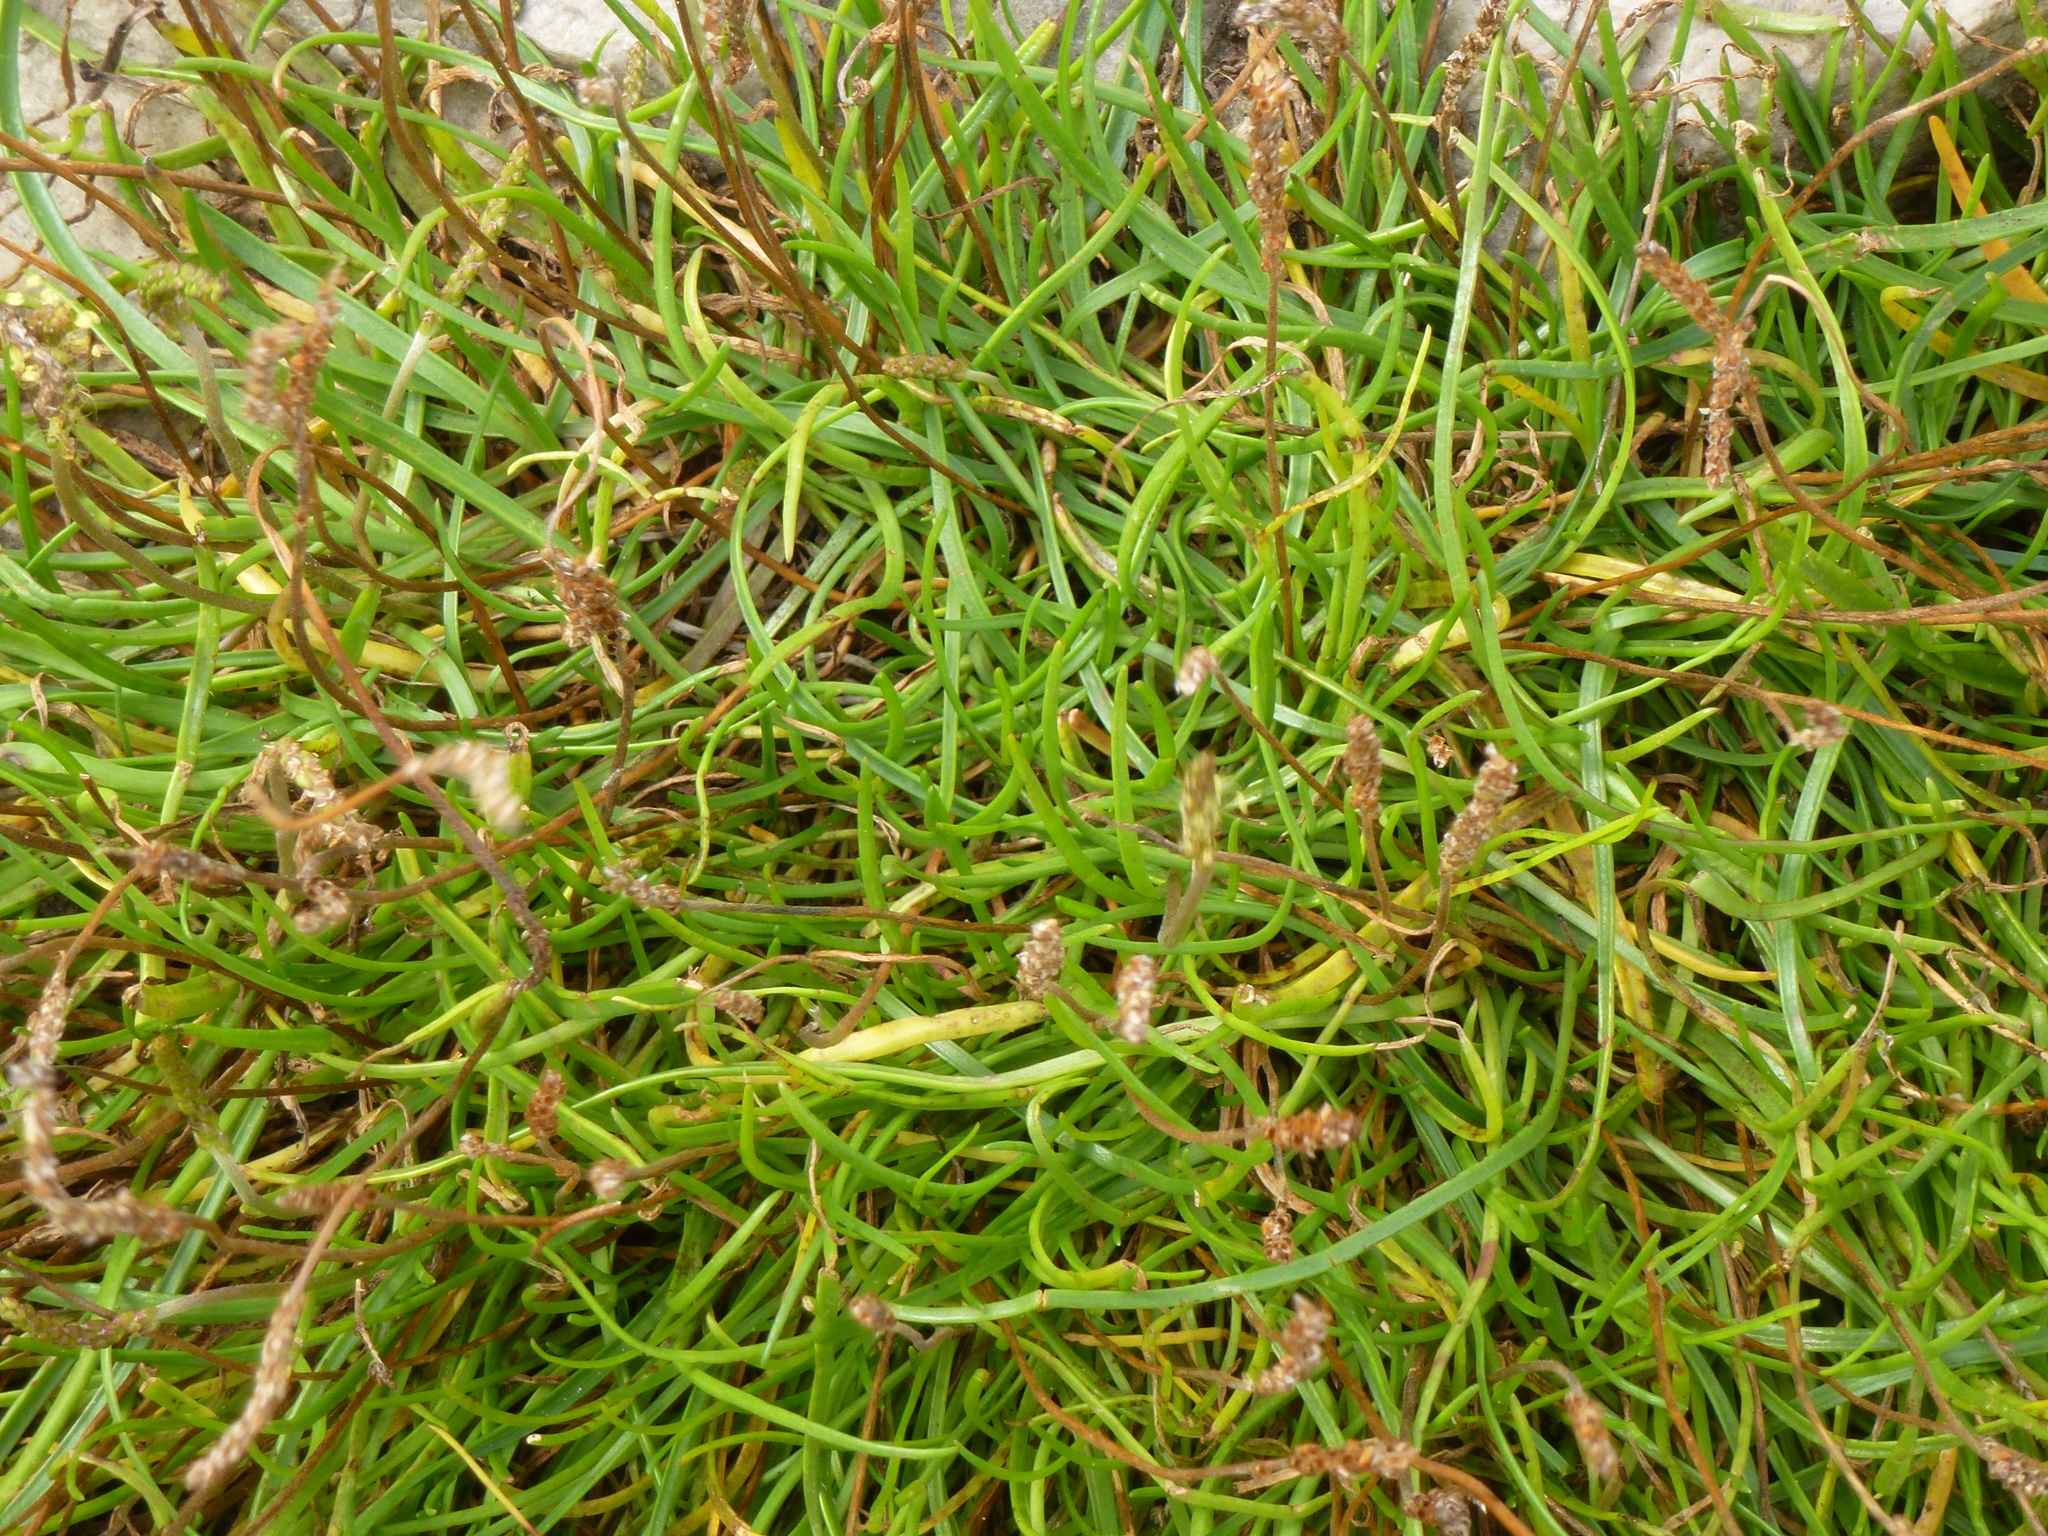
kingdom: Plantae
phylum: Tracheophyta
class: Magnoliopsida
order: Lamiales
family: Plantaginaceae
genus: Plantago
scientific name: Plantago maritima
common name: Sea plantain
